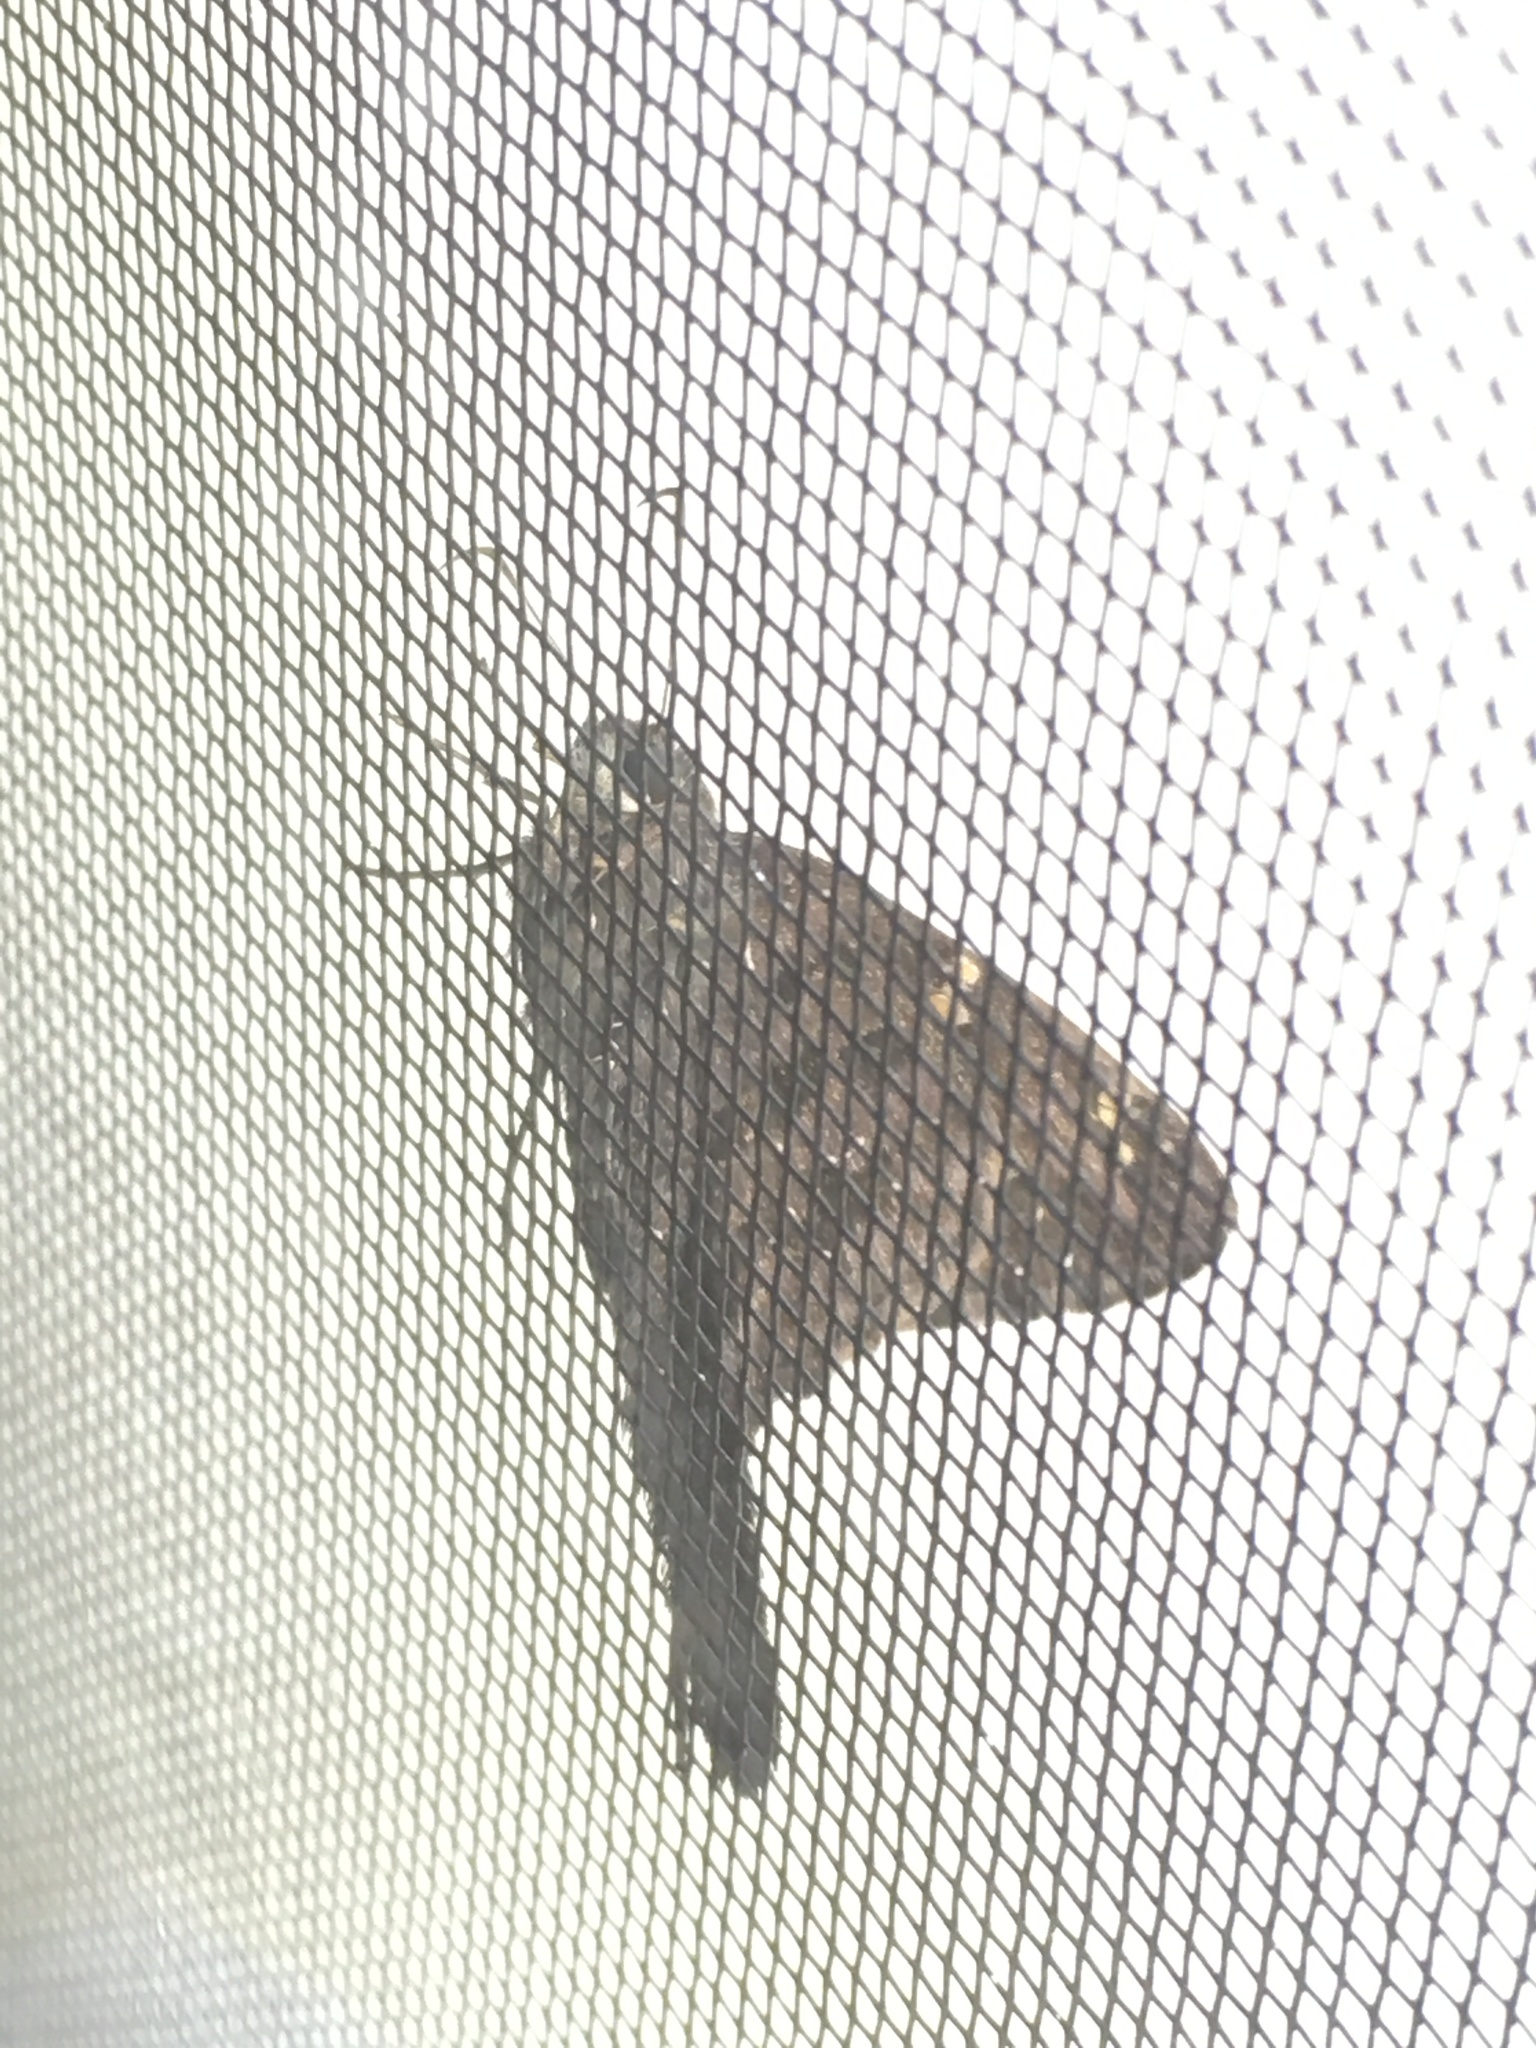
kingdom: Animalia
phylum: Arthropoda
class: Insecta
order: Lepidoptera
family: Hesperiidae
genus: Thorybes
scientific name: Thorybes
